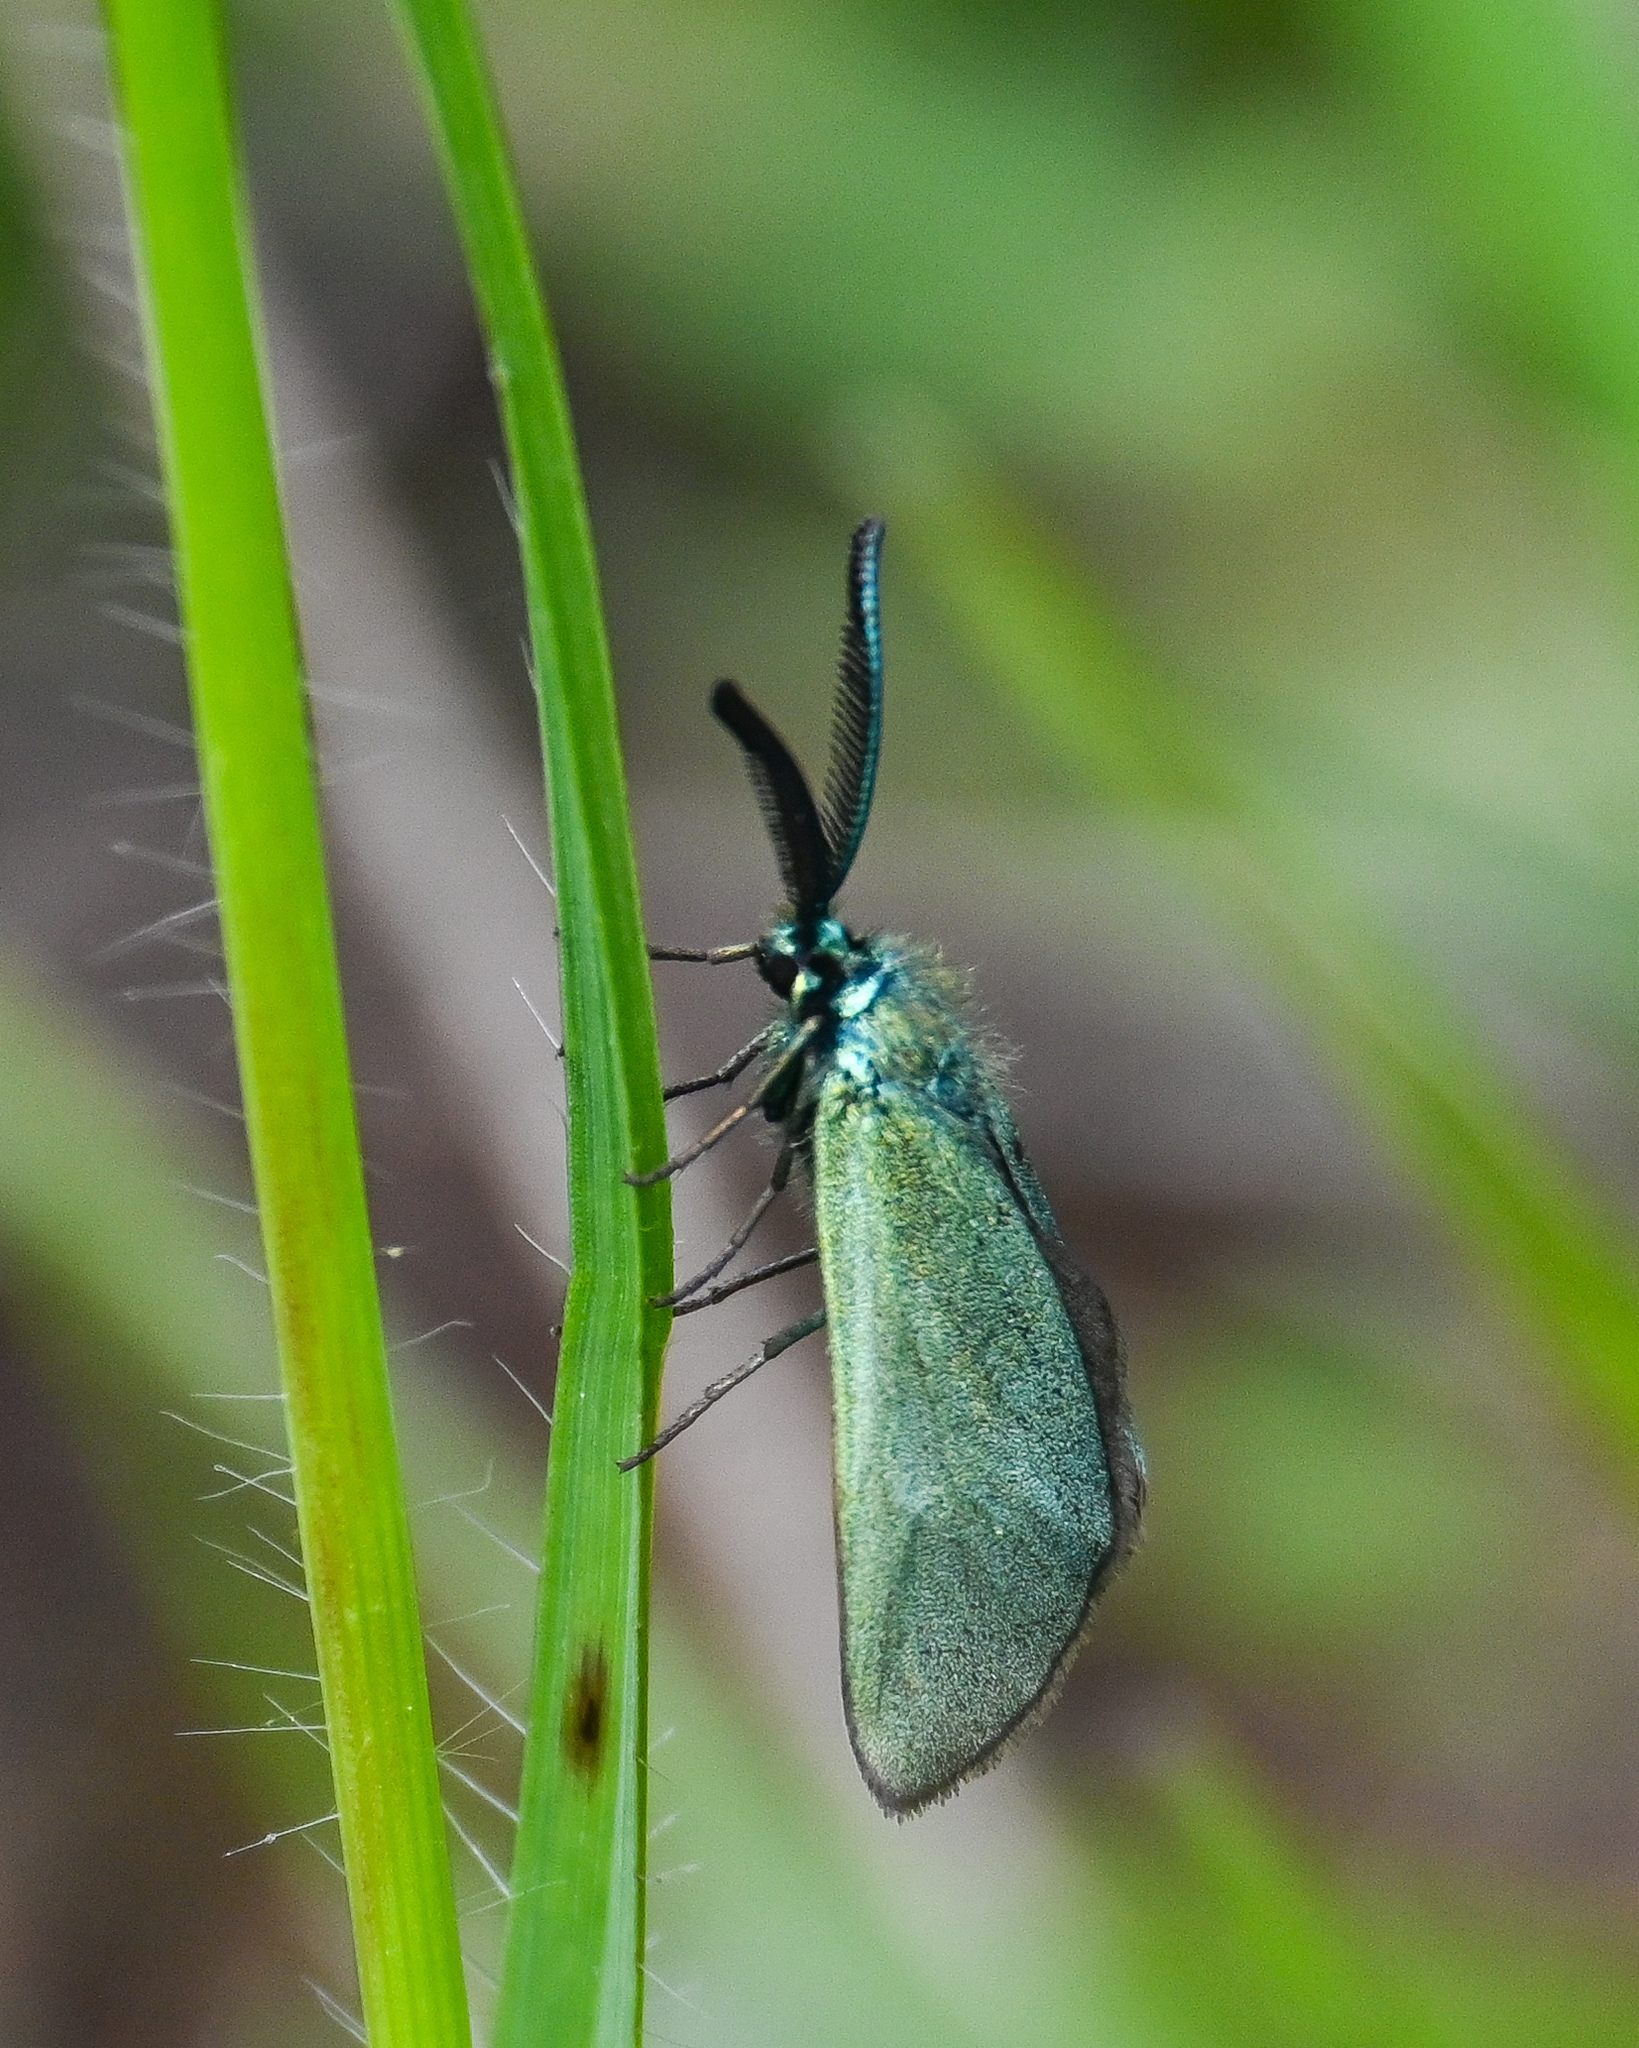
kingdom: Animalia
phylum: Arthropoda
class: Insecta
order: Lepidoptera
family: Zygaenidae
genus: Adscita
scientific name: Adscita statices
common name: Forester
